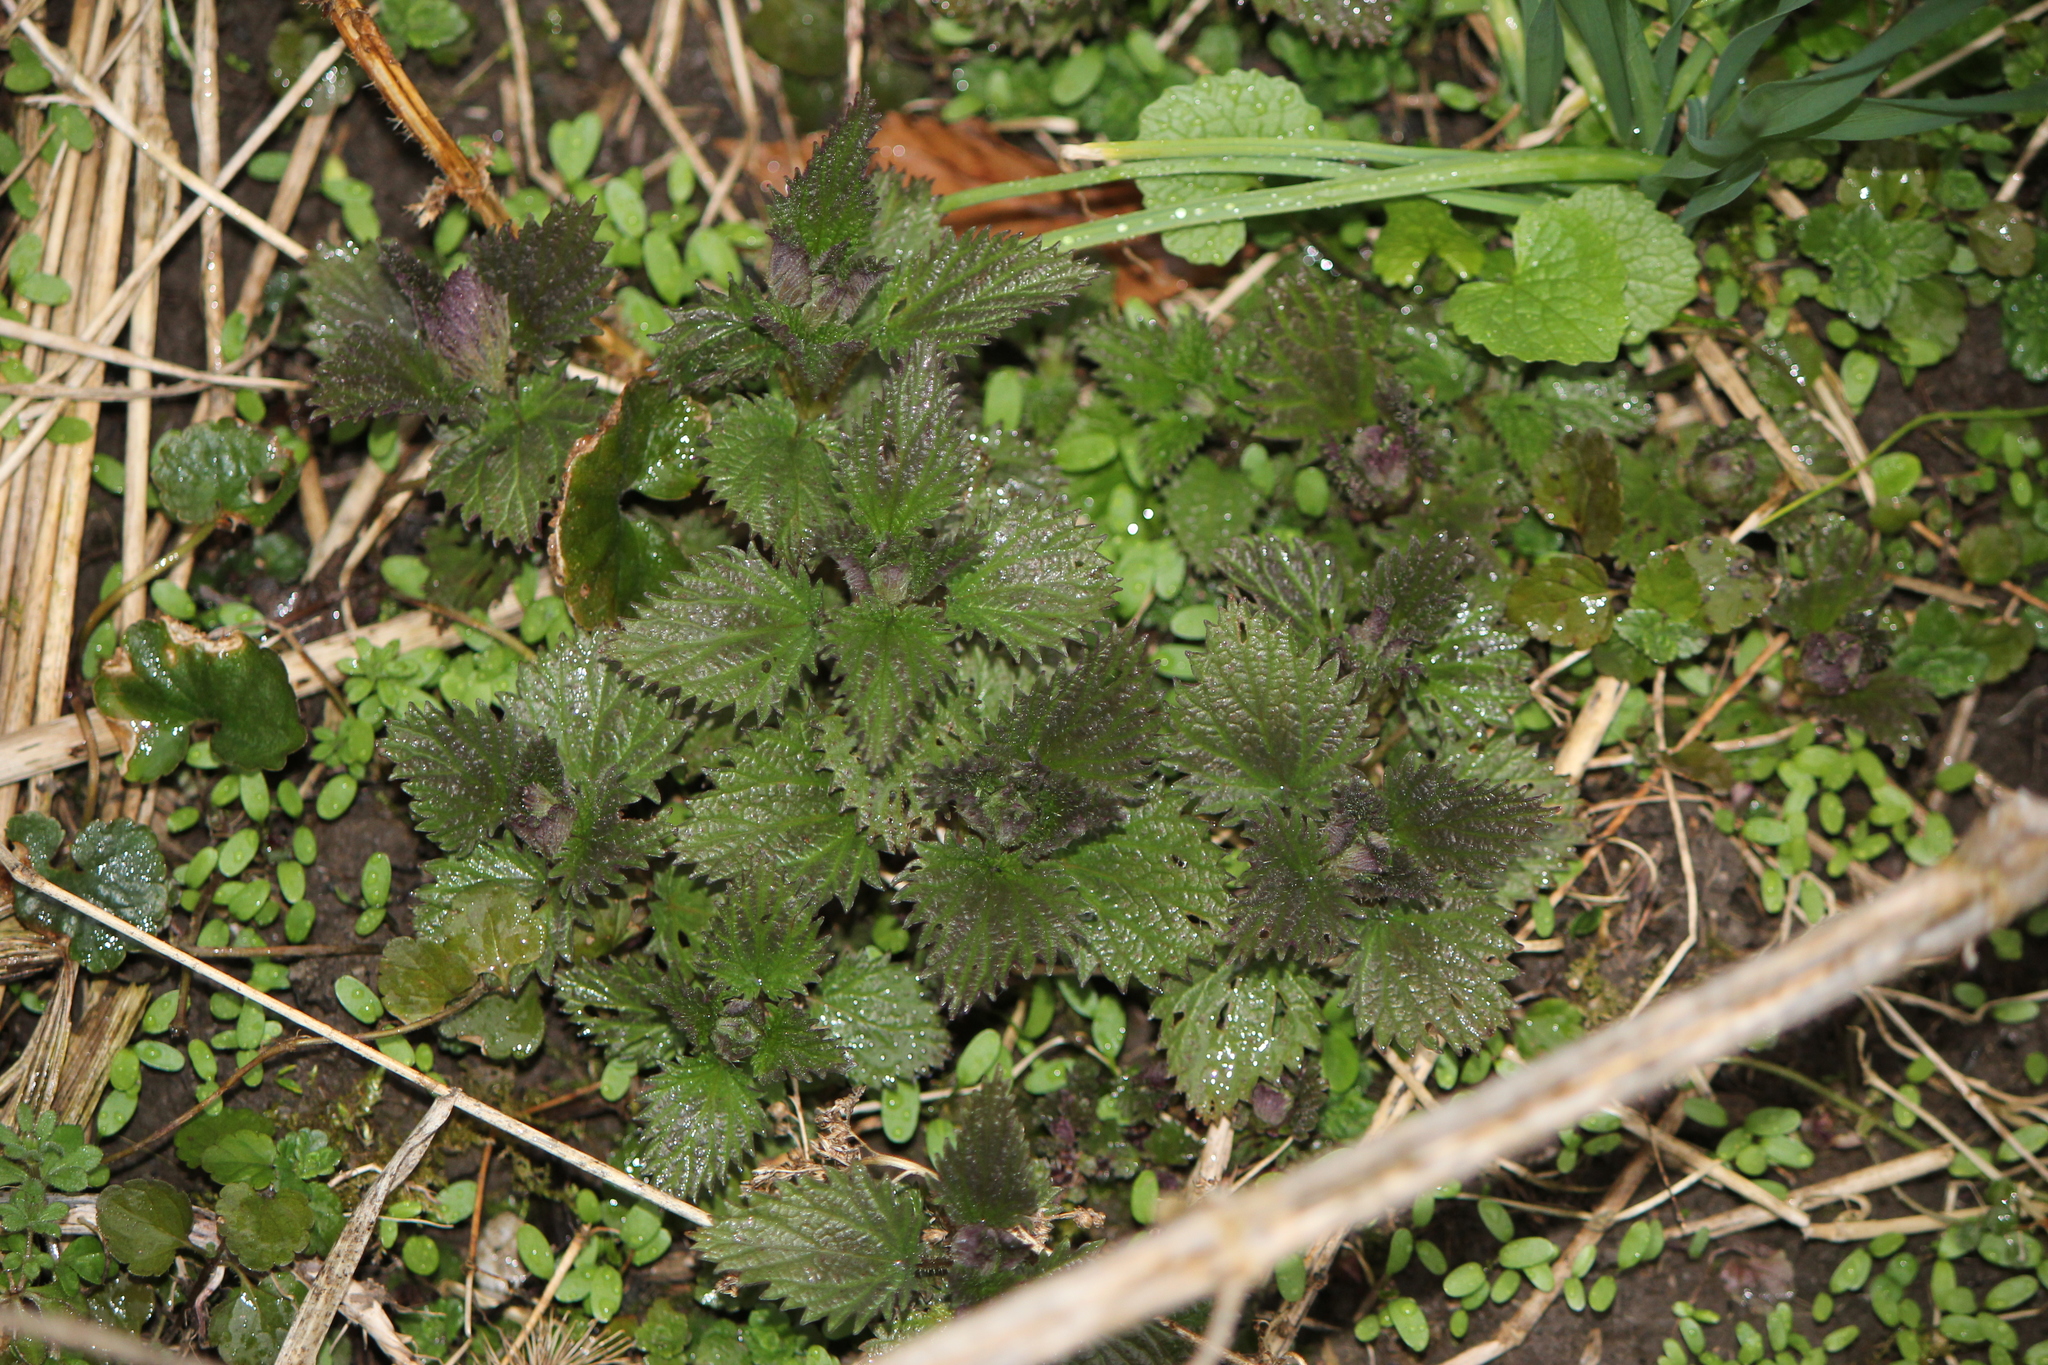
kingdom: Plantae
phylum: Tracheophyta
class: Magnoliopsida
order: Rosales
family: Urticaceae
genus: Urtica
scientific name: Urtica dioica
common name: Common nettle
